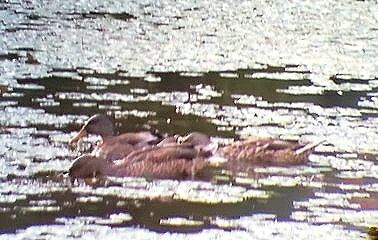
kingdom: Animalia
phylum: Chordata
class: Aves
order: Anseriformes
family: Anatidae
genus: Anas
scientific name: Anas platyrhynchos
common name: Mallard
